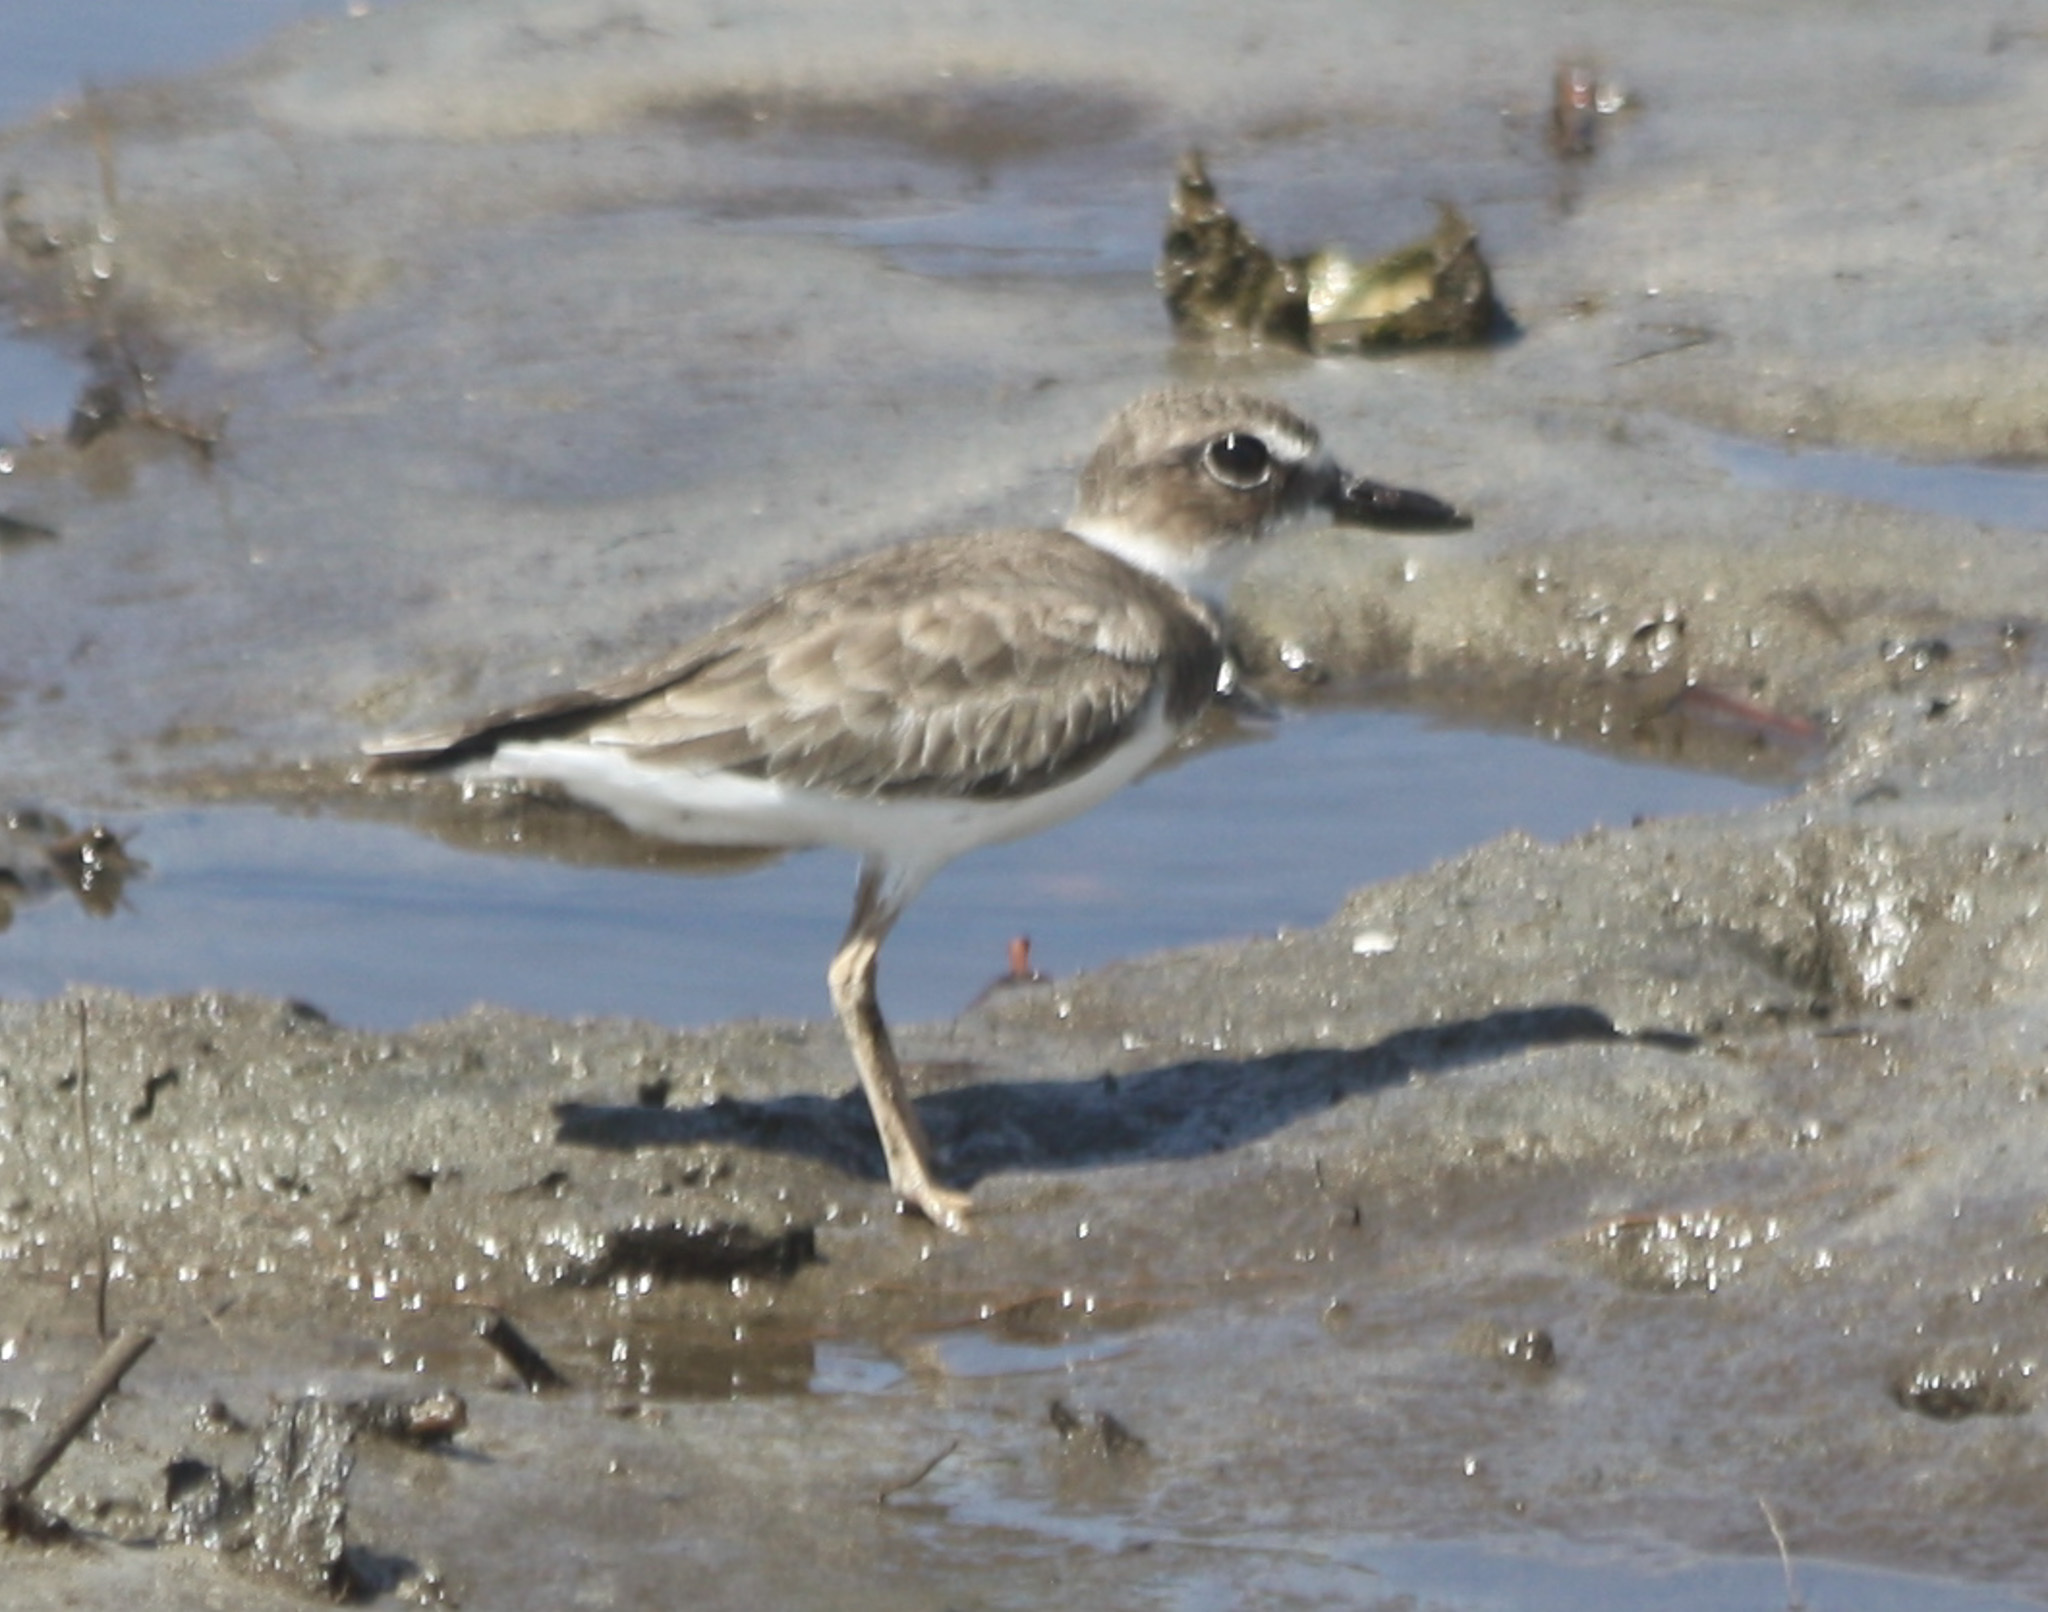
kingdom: Animalia
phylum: Chordata
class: Aves
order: Charadriiformes
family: Charadriidae
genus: Anarhynchus
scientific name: Anarhynchus
